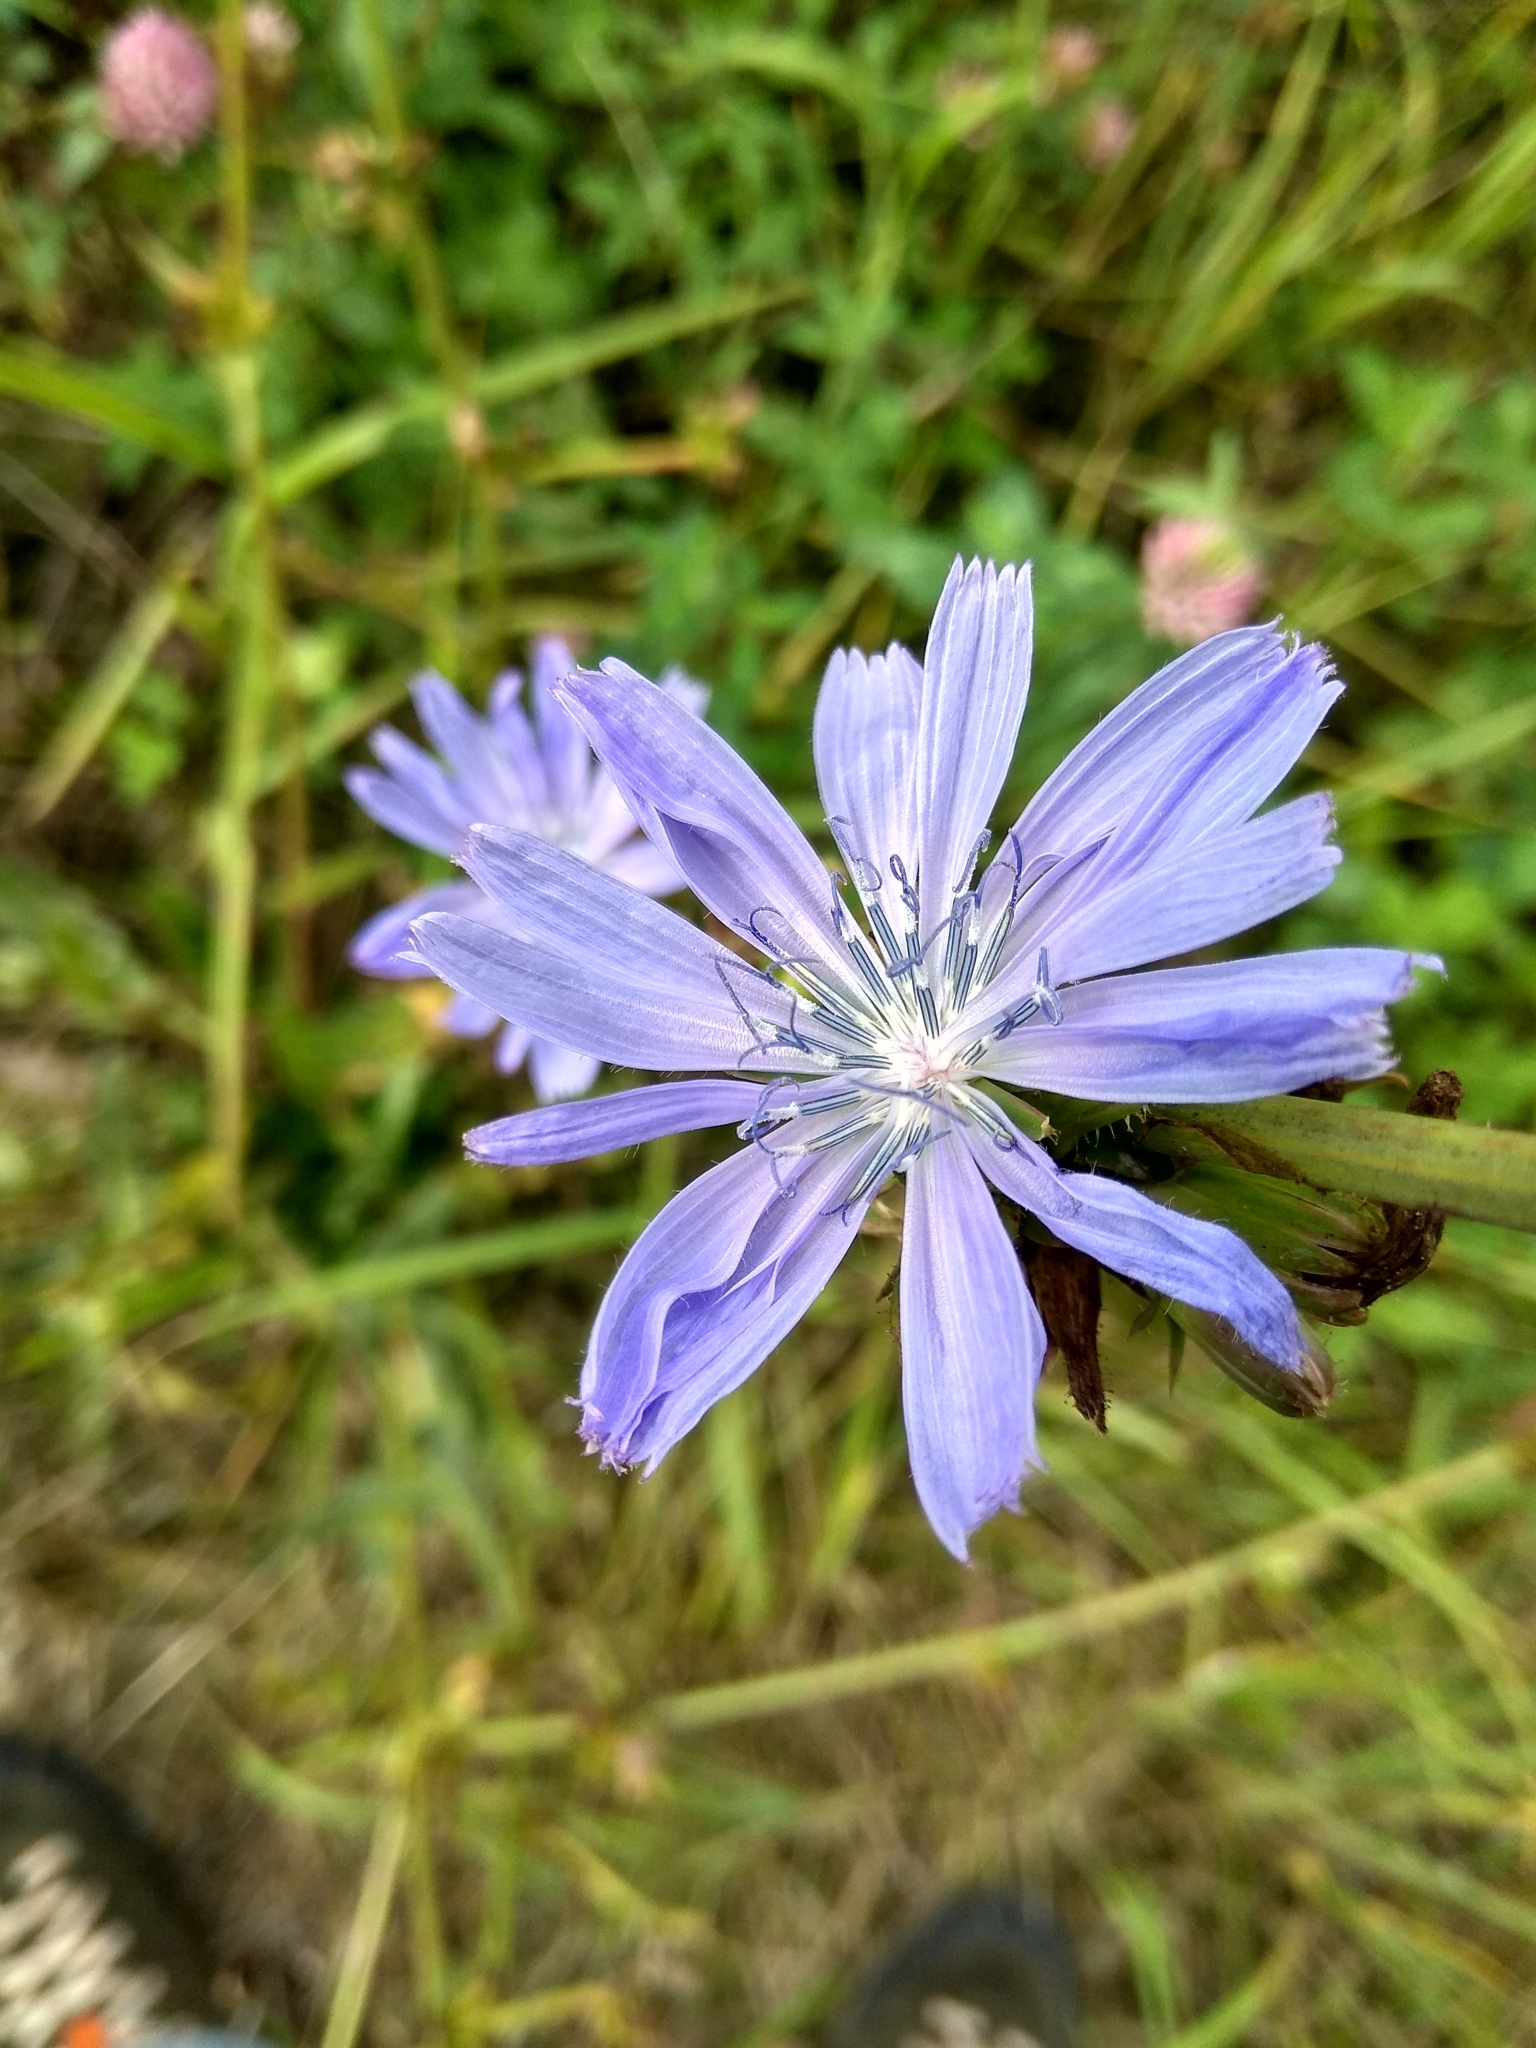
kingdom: Plantae
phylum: Tracheophyta
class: Magnoliopsida
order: Asterales
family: Asteraceae
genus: Cichorium
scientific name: Cichorium intybus
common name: Chicory
